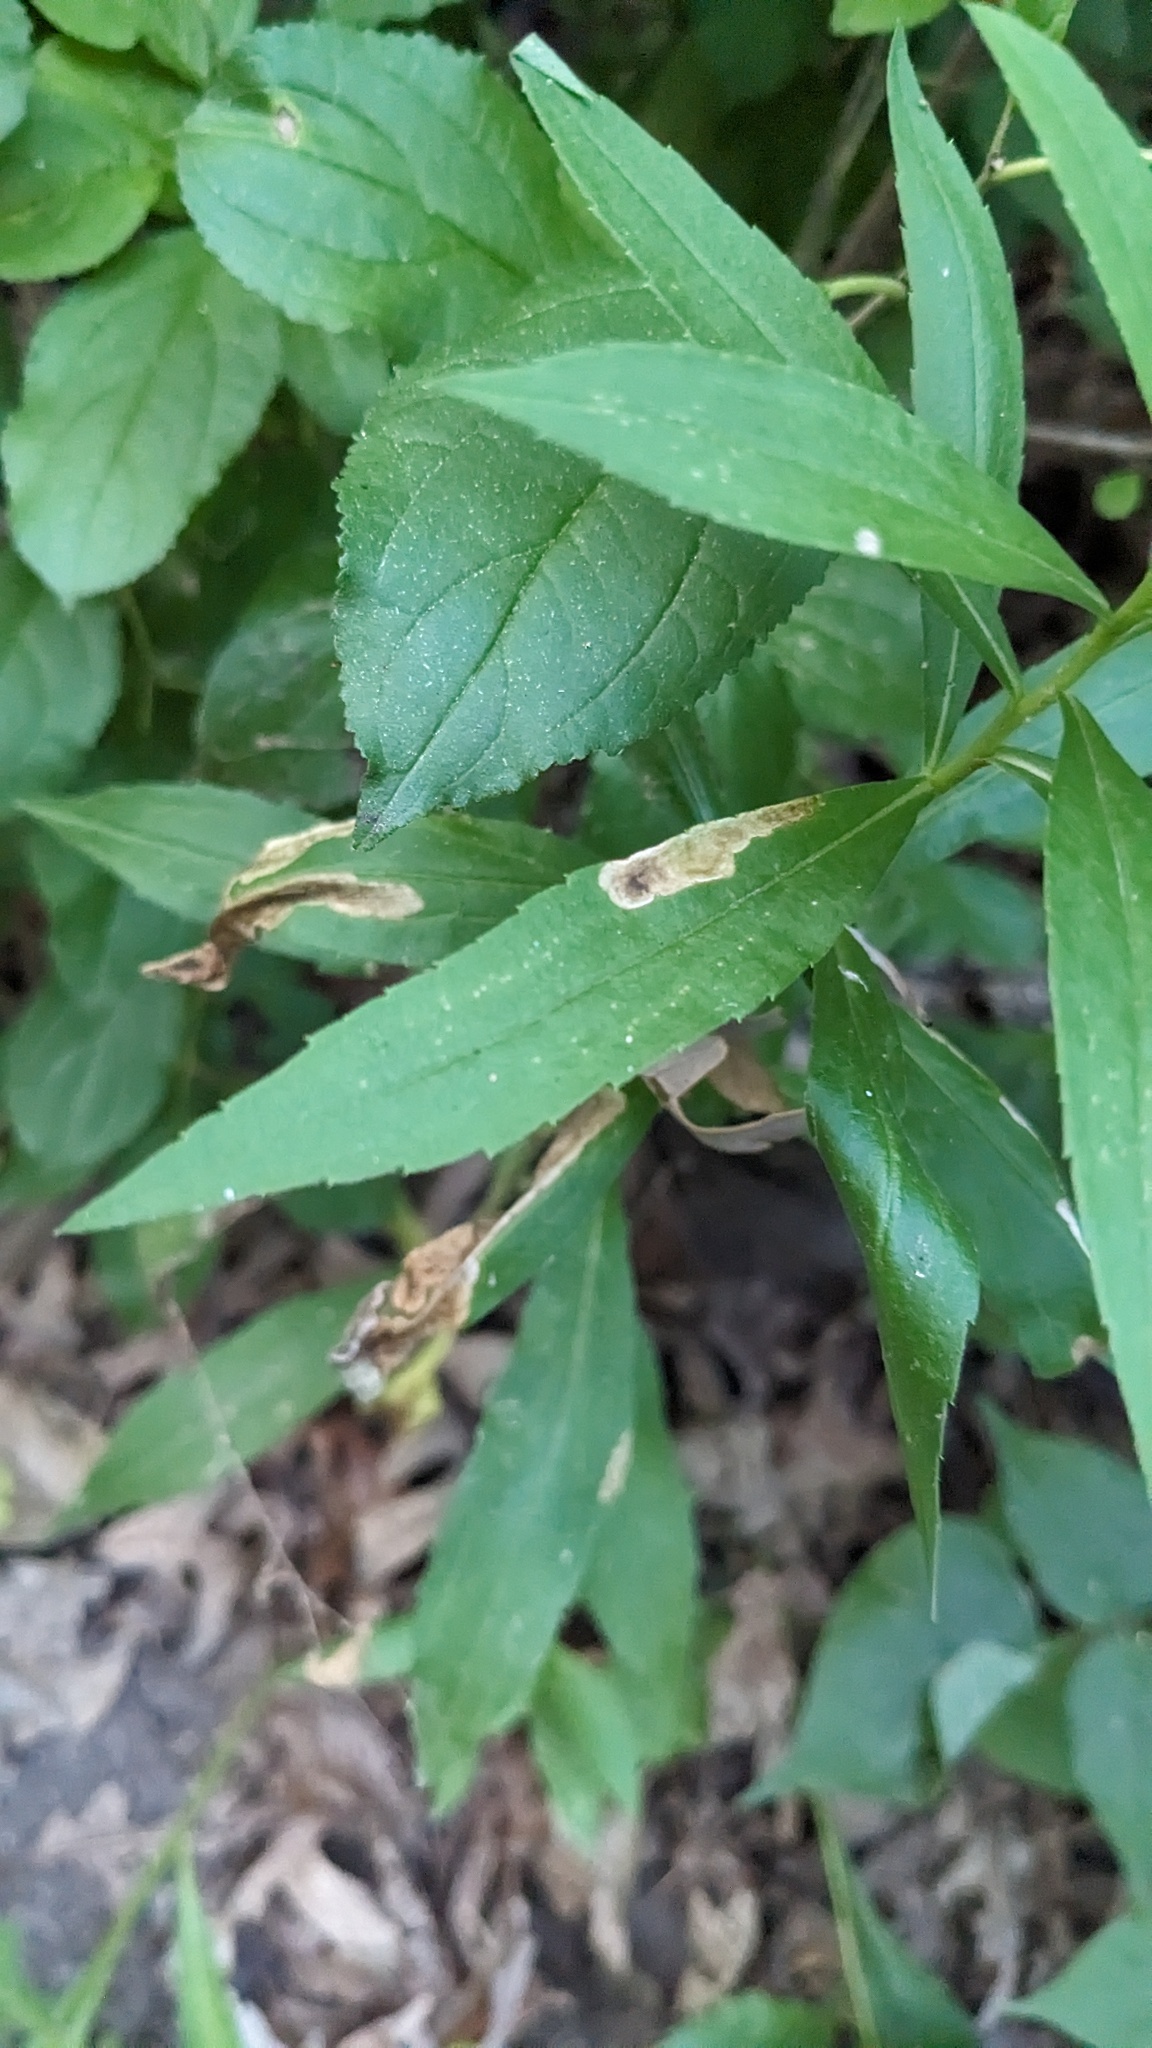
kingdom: Animalia
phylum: Arthropoda
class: Insecta
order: Diptera
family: Agromyzidae
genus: Nemorimyza
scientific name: Nemorimyza posticata
